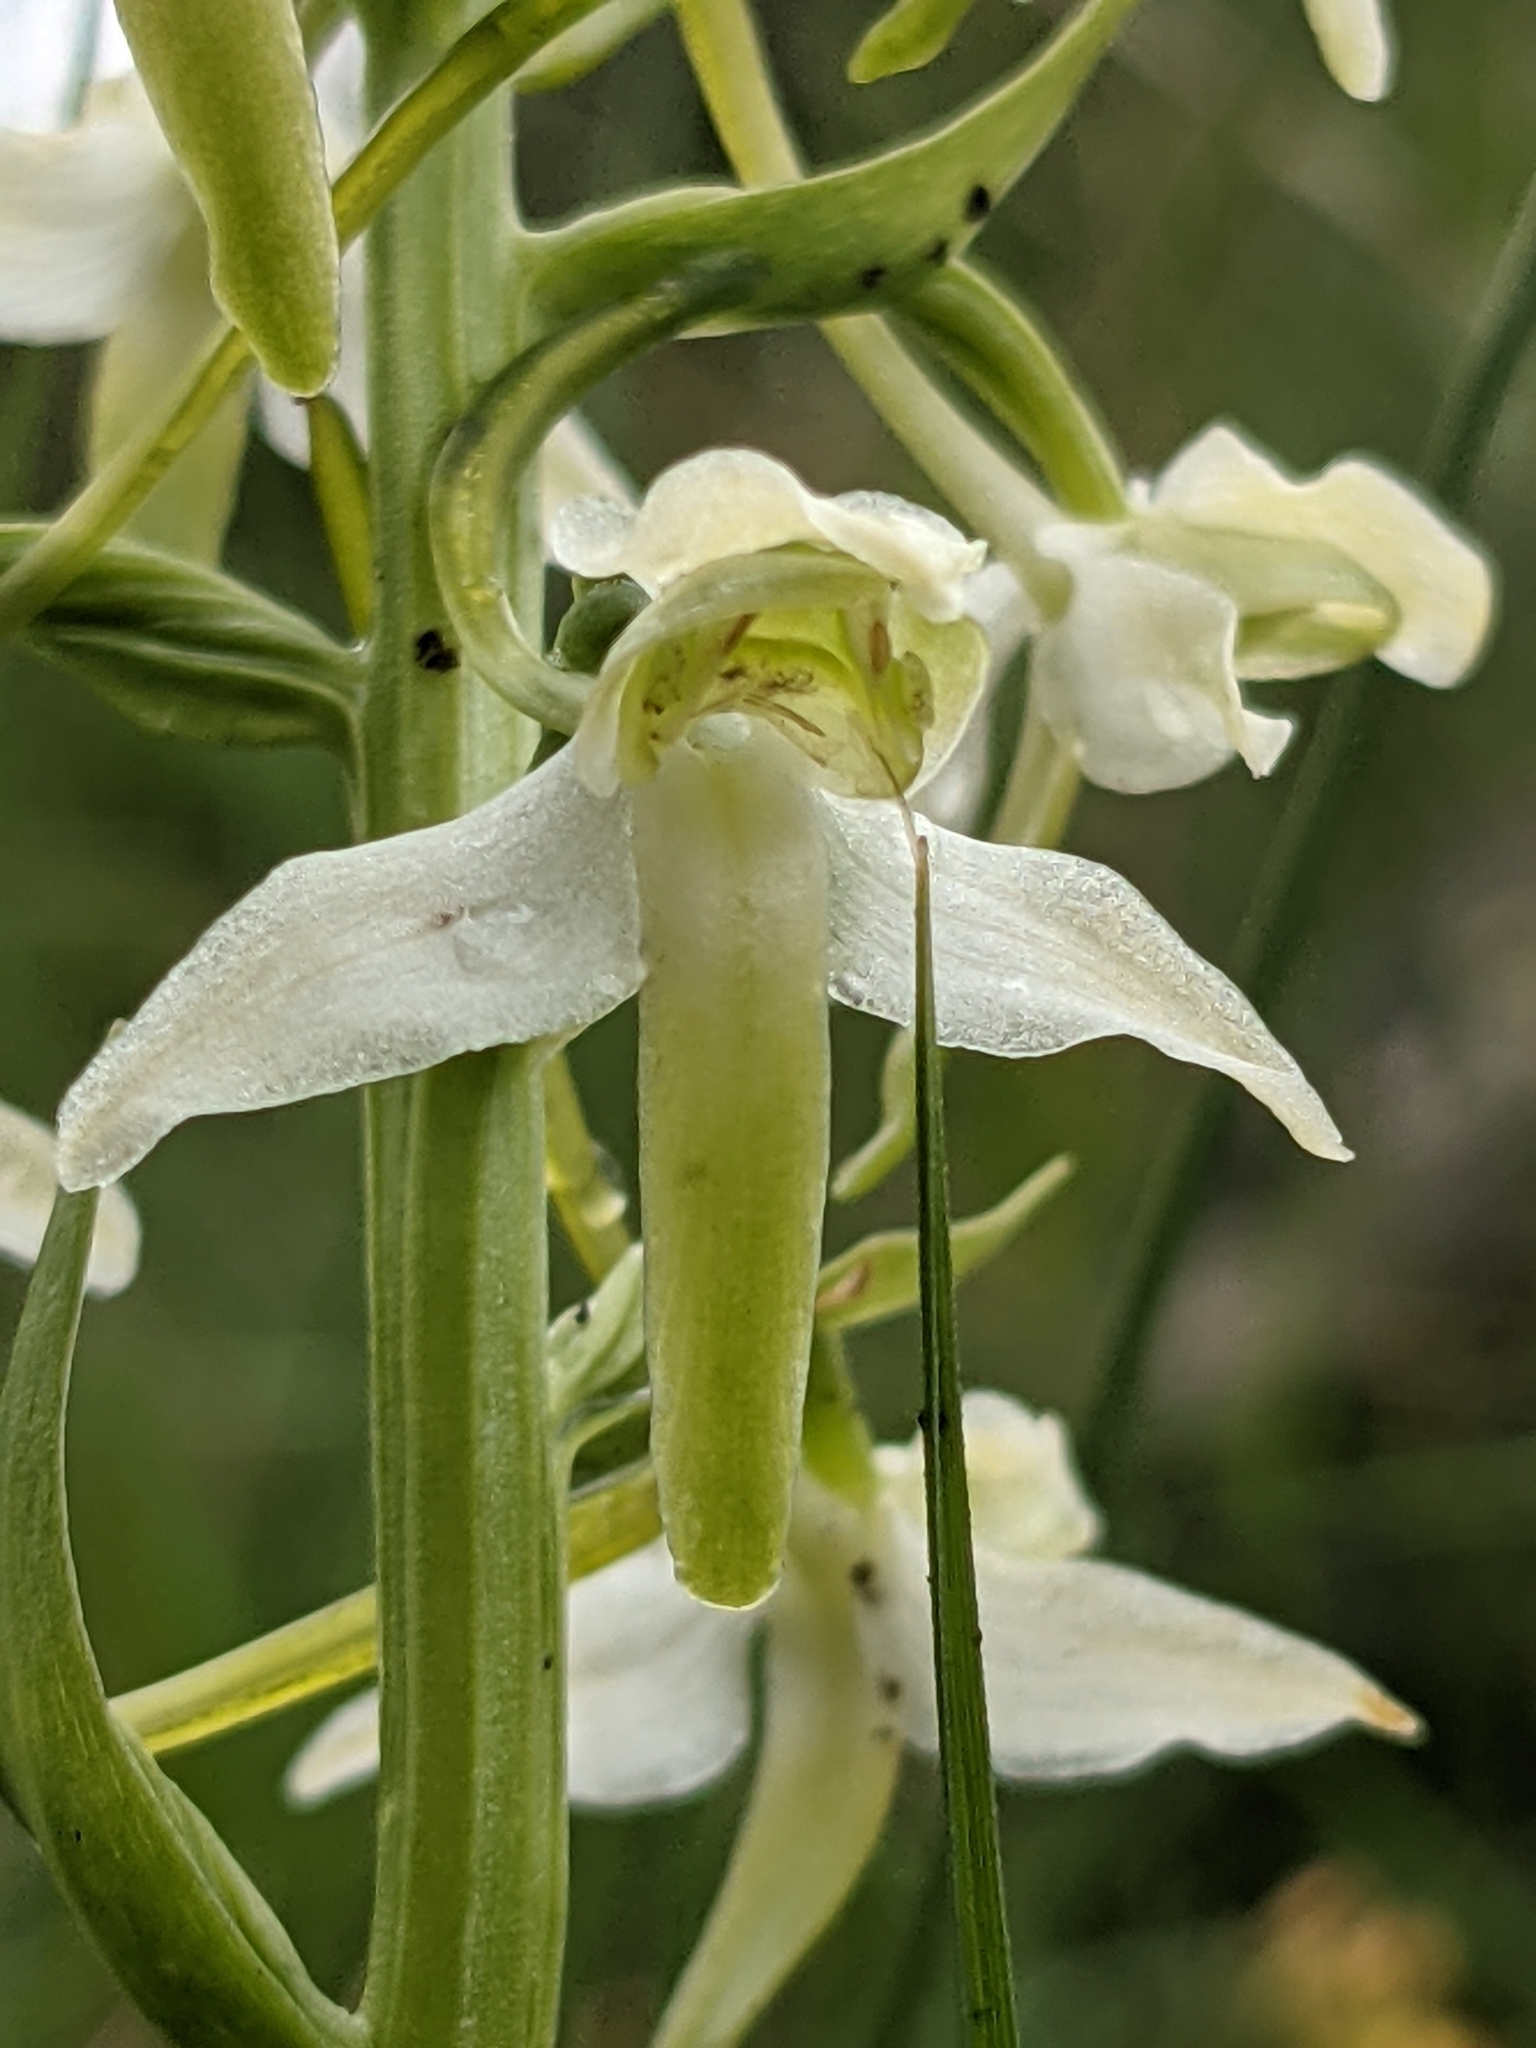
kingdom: Plantae
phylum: Tracheophyta
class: Liliopsida
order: Asparagales
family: Orchidaceae
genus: Platanthera
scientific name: Platanthera chlorantha
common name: Greater butterfly-orchid
